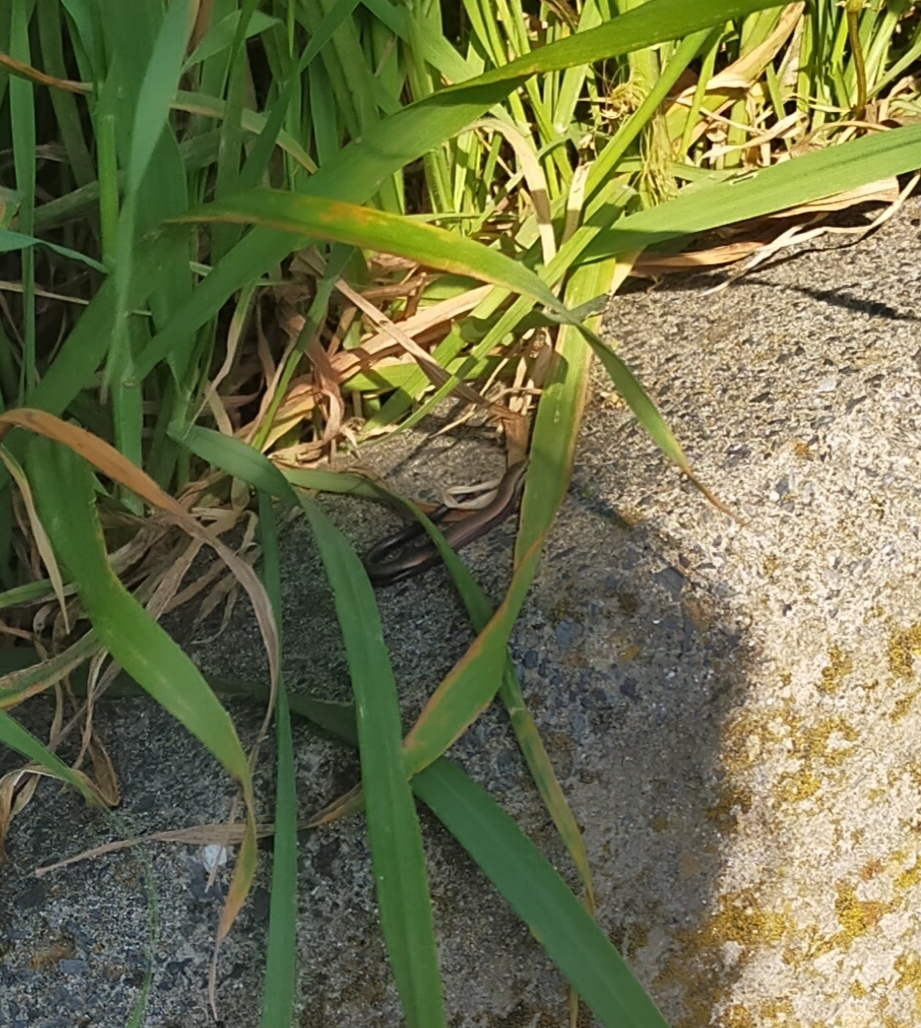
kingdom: Animalia
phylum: Chordata
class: Squamata
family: Scincidae
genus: Ablepharus
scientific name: Ablepharus kitaibelii
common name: Juniper skink
